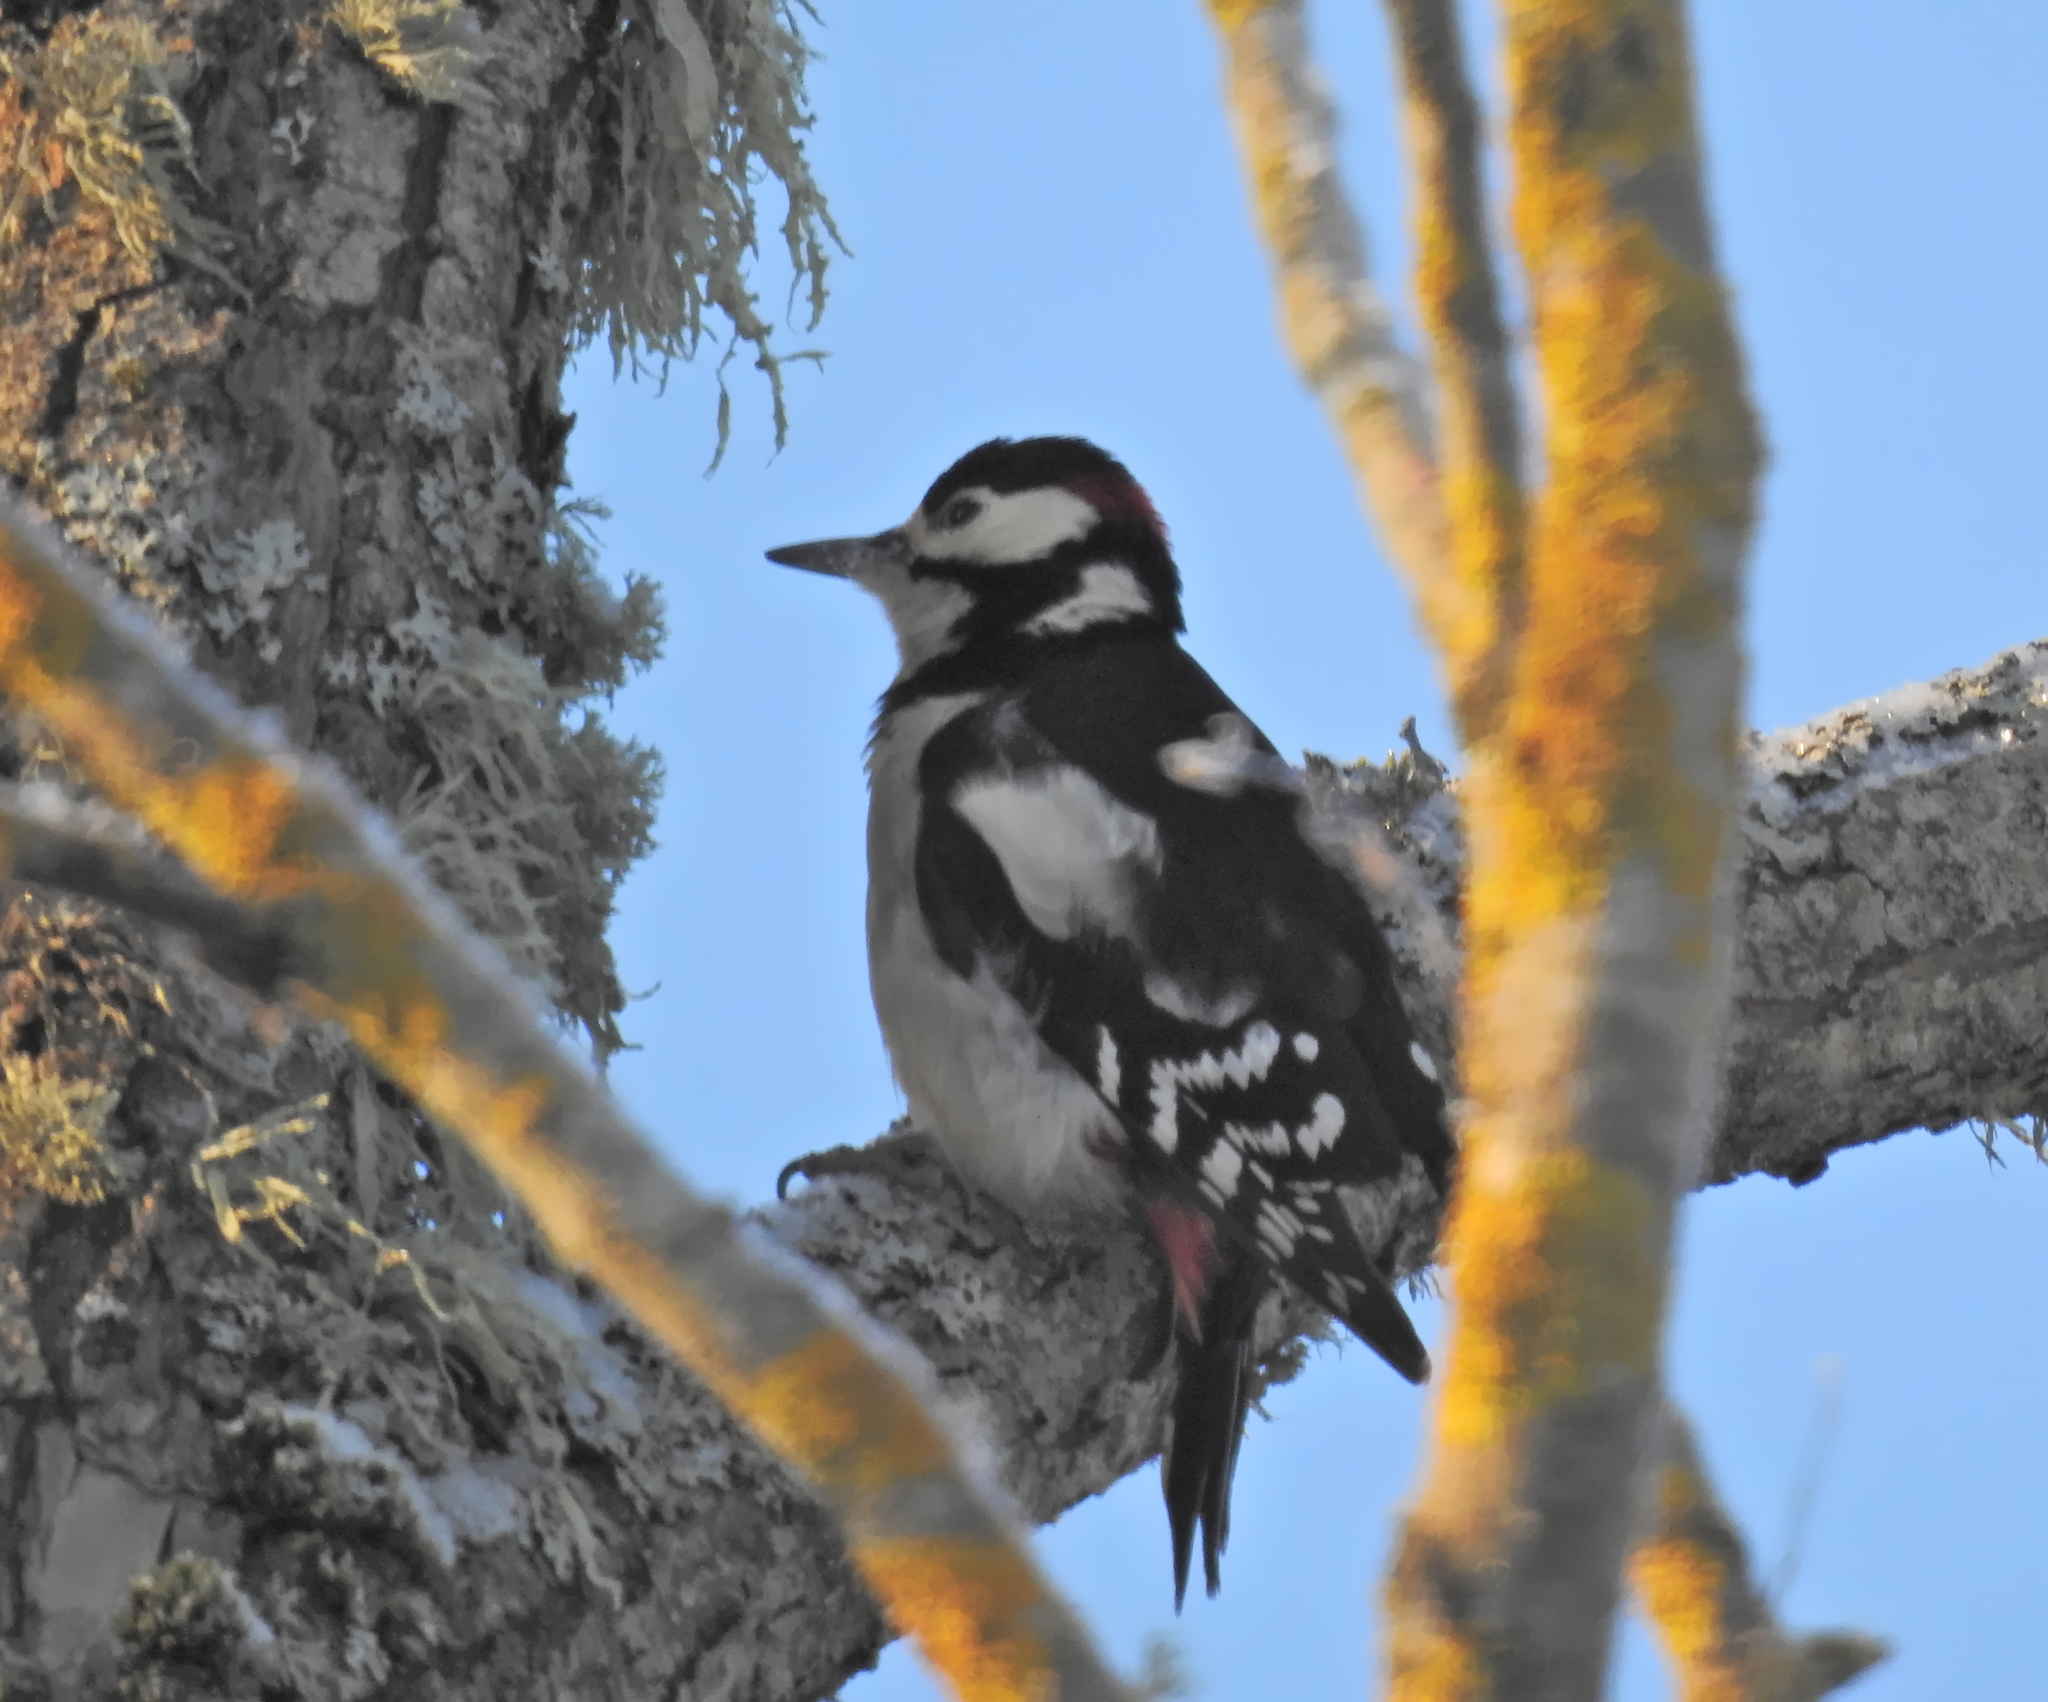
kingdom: Animalia
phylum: Chordata
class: Aves
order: Piciformes
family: Picidae
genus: Dendrocopos
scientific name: Dendrocopos major
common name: Great spotted woodpecker
